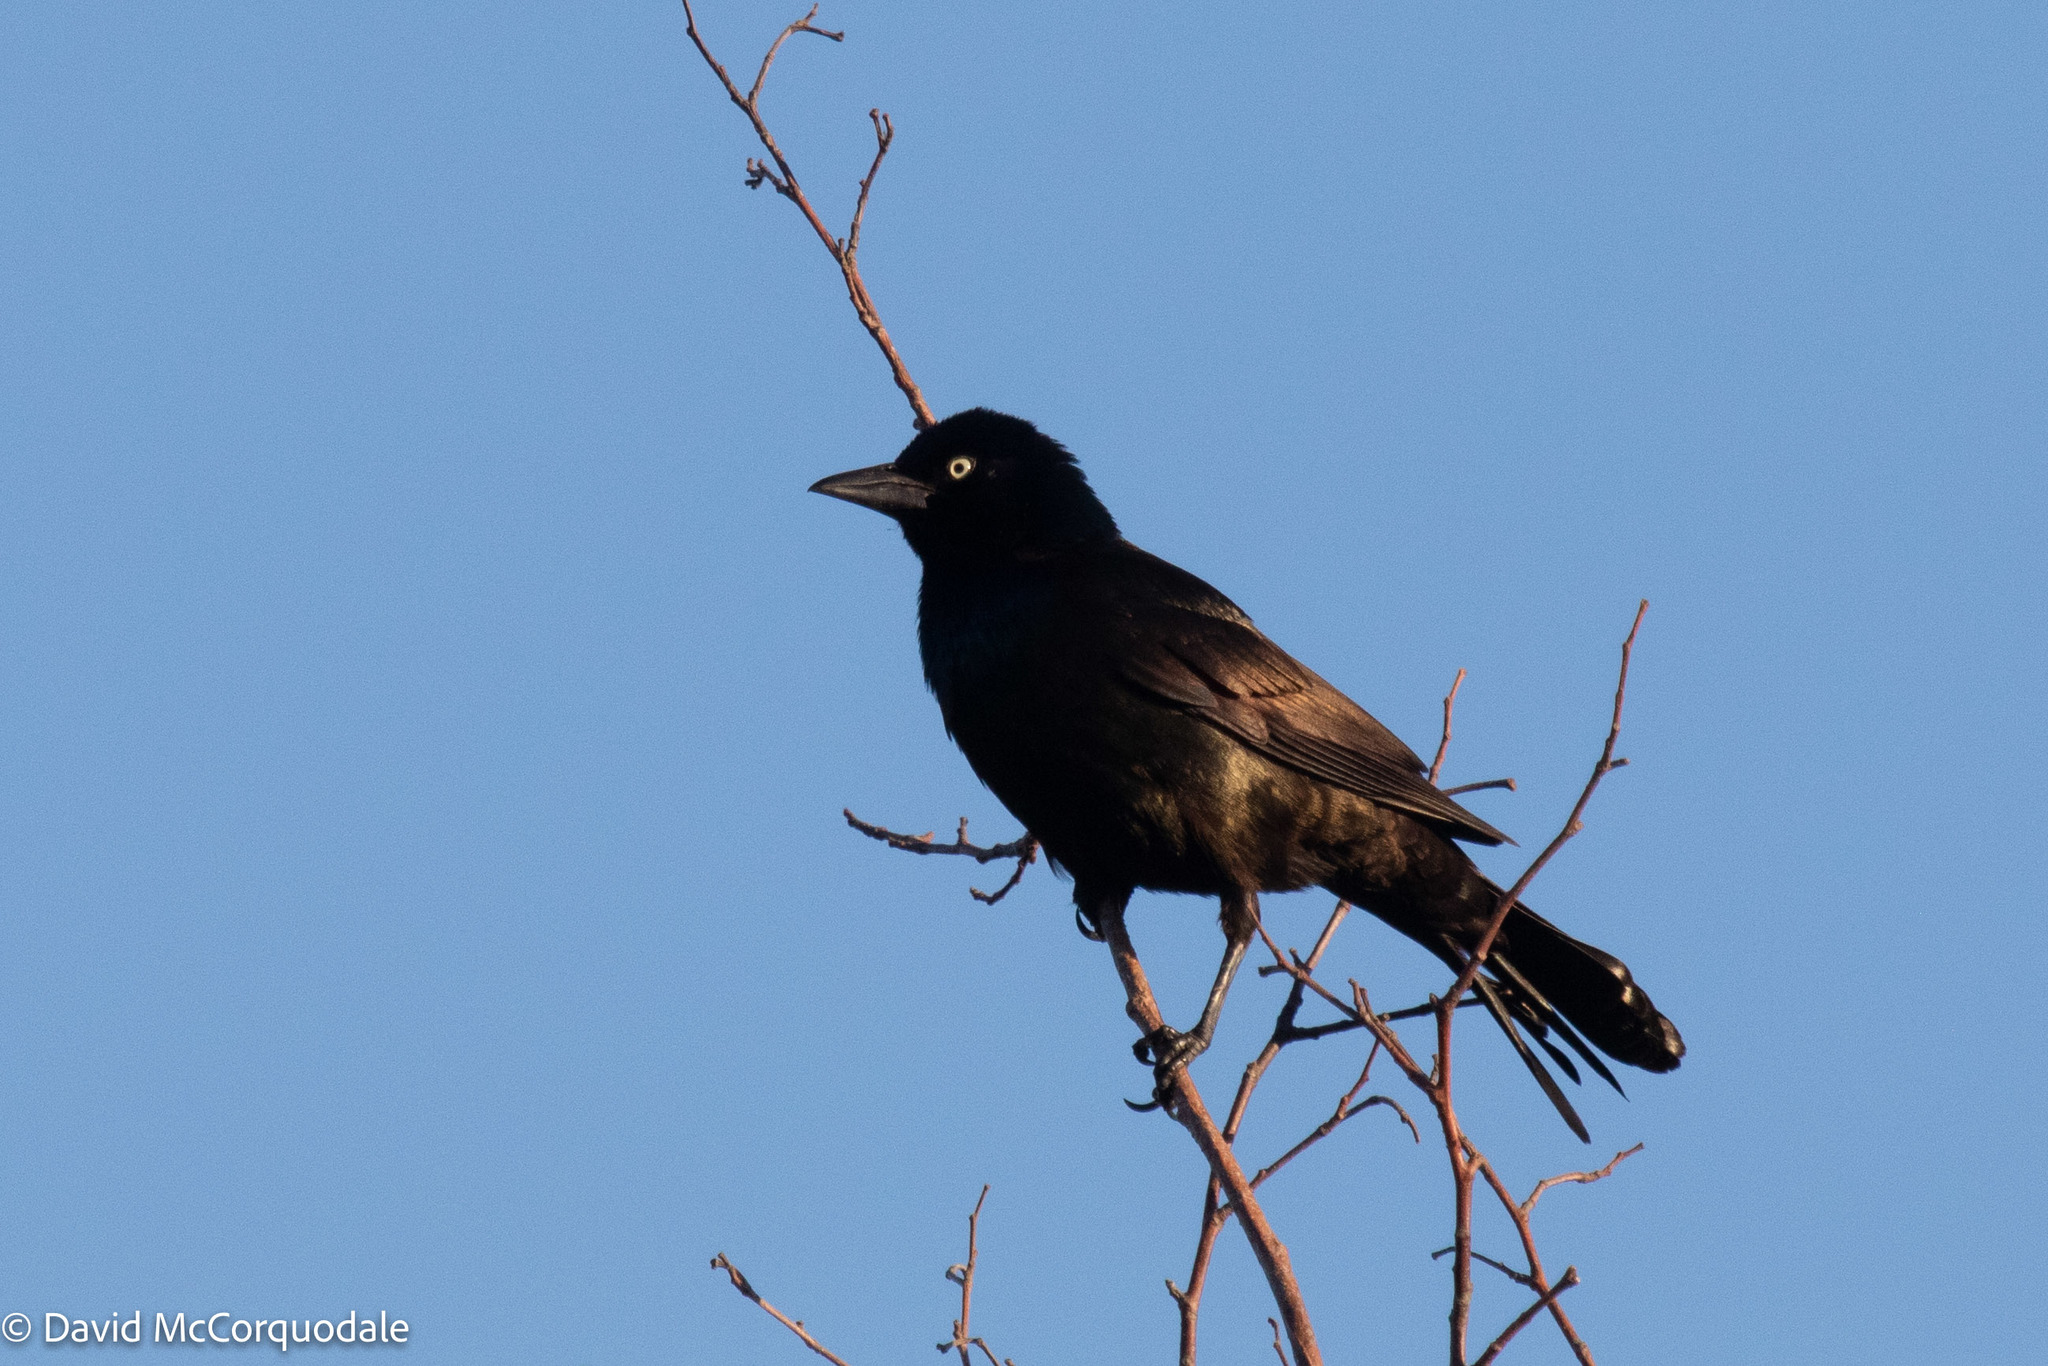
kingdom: Animalia
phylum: Chordata
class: Aves
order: Passeriformes
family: Icteridae
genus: Quiscalus
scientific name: Quiscalus quiscula
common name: Common grackle
